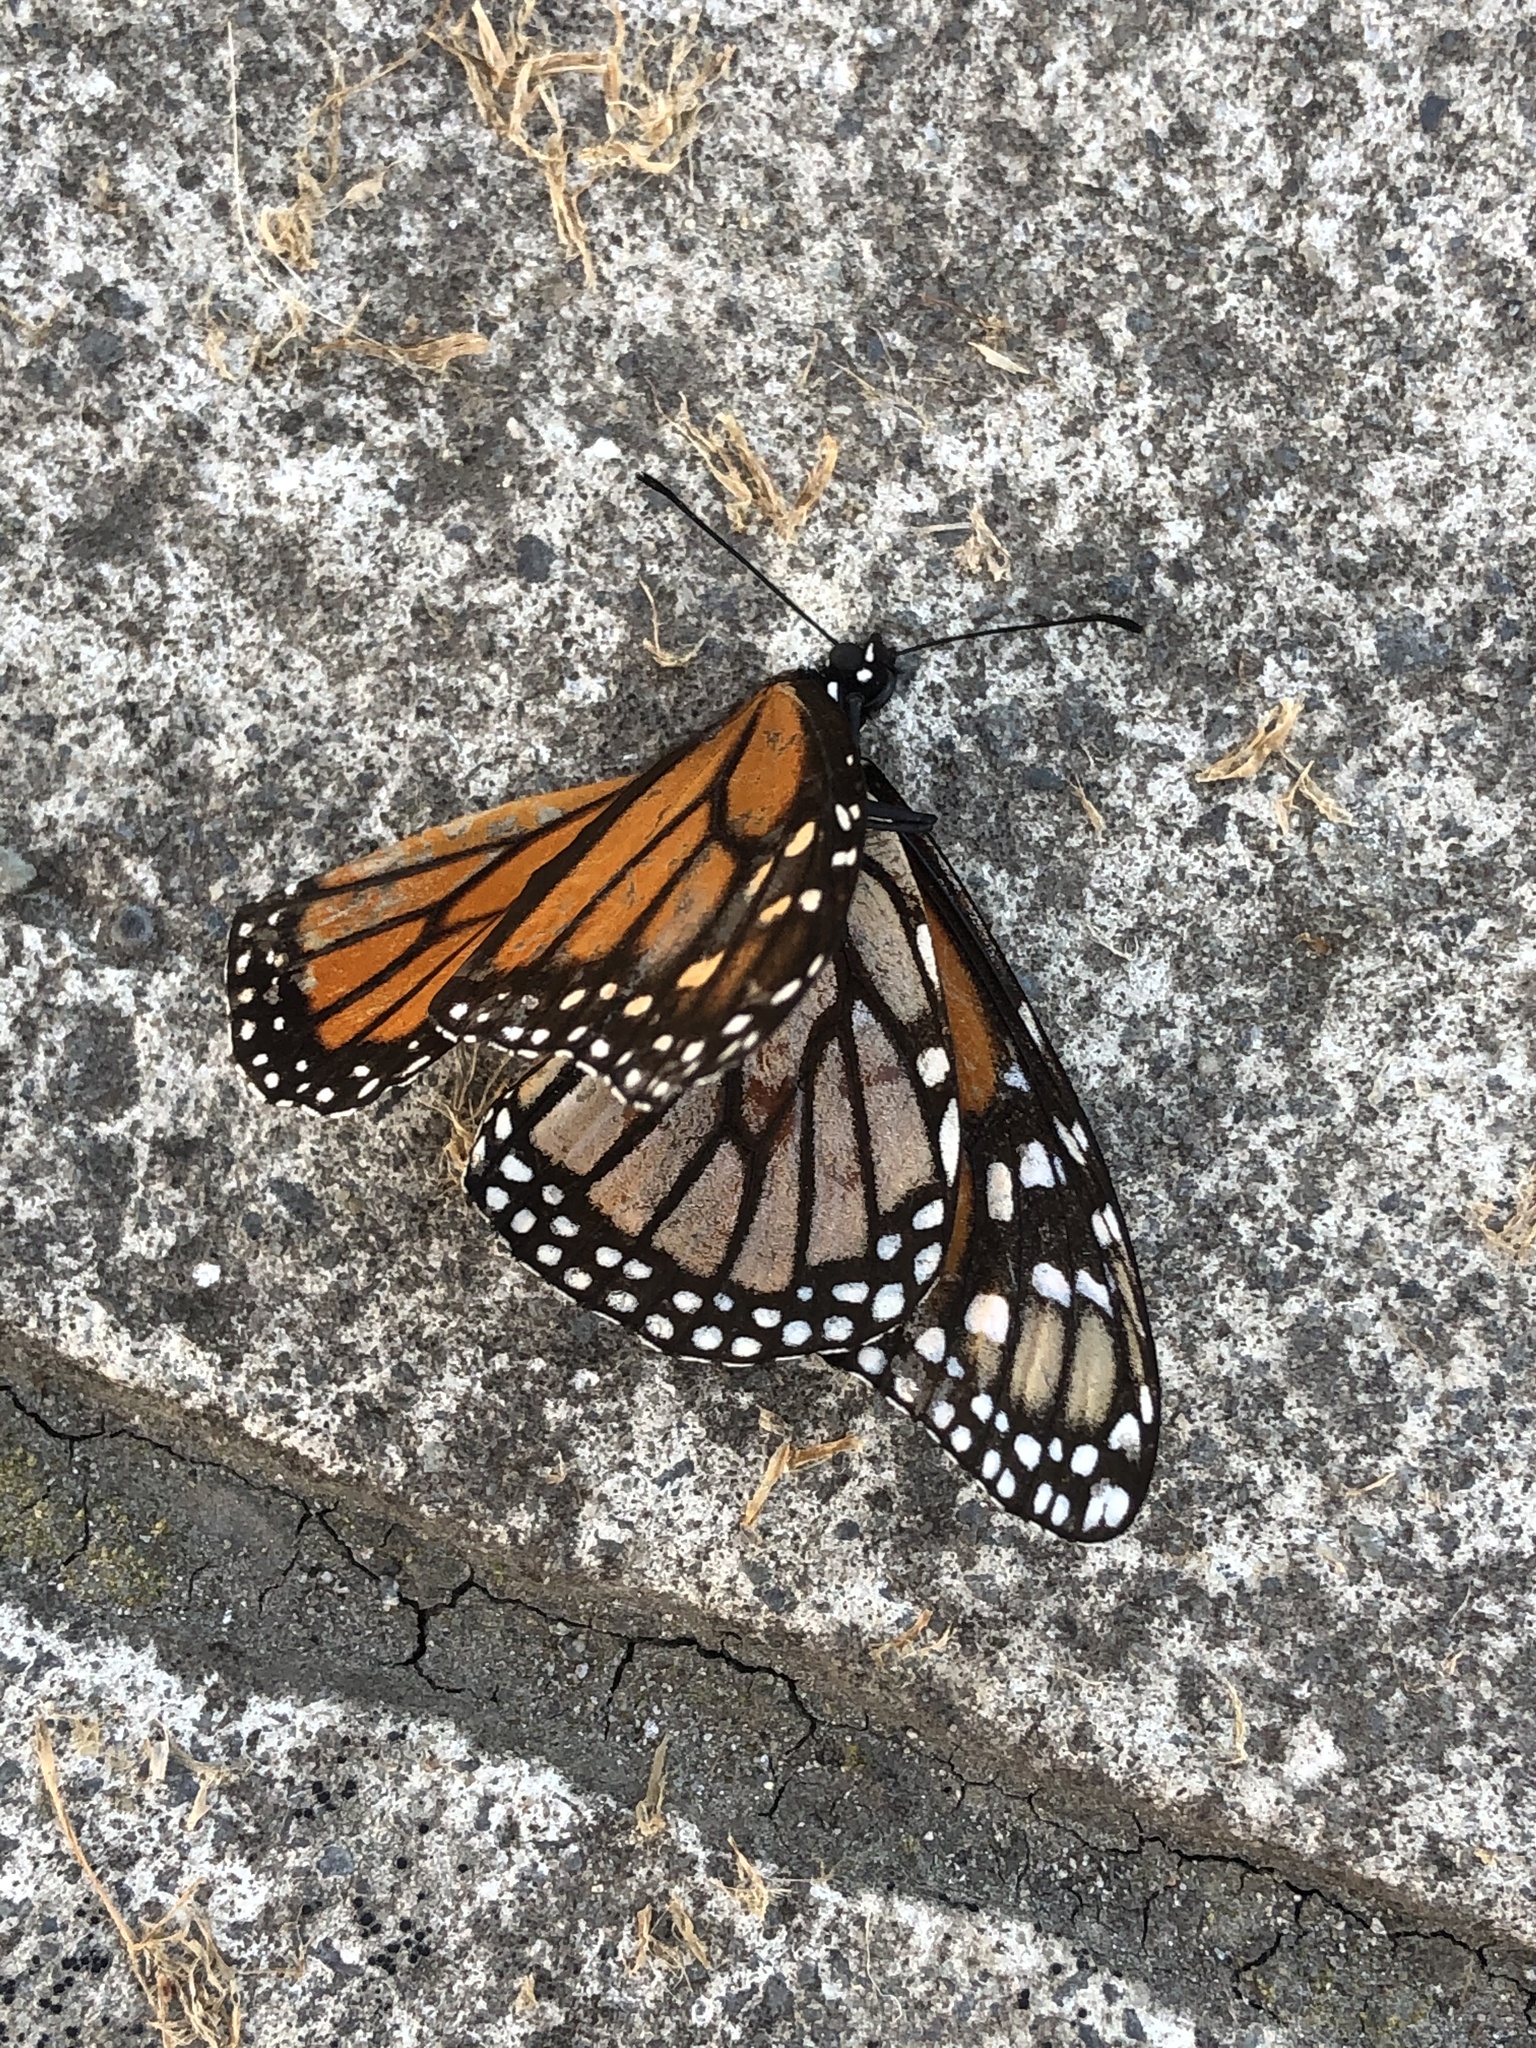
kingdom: Animalia
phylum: Arthropoda
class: Insecta
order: Lepidoptera
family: Nymphalidae
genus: Danaus
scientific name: Danaus plexippus
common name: Monarch
